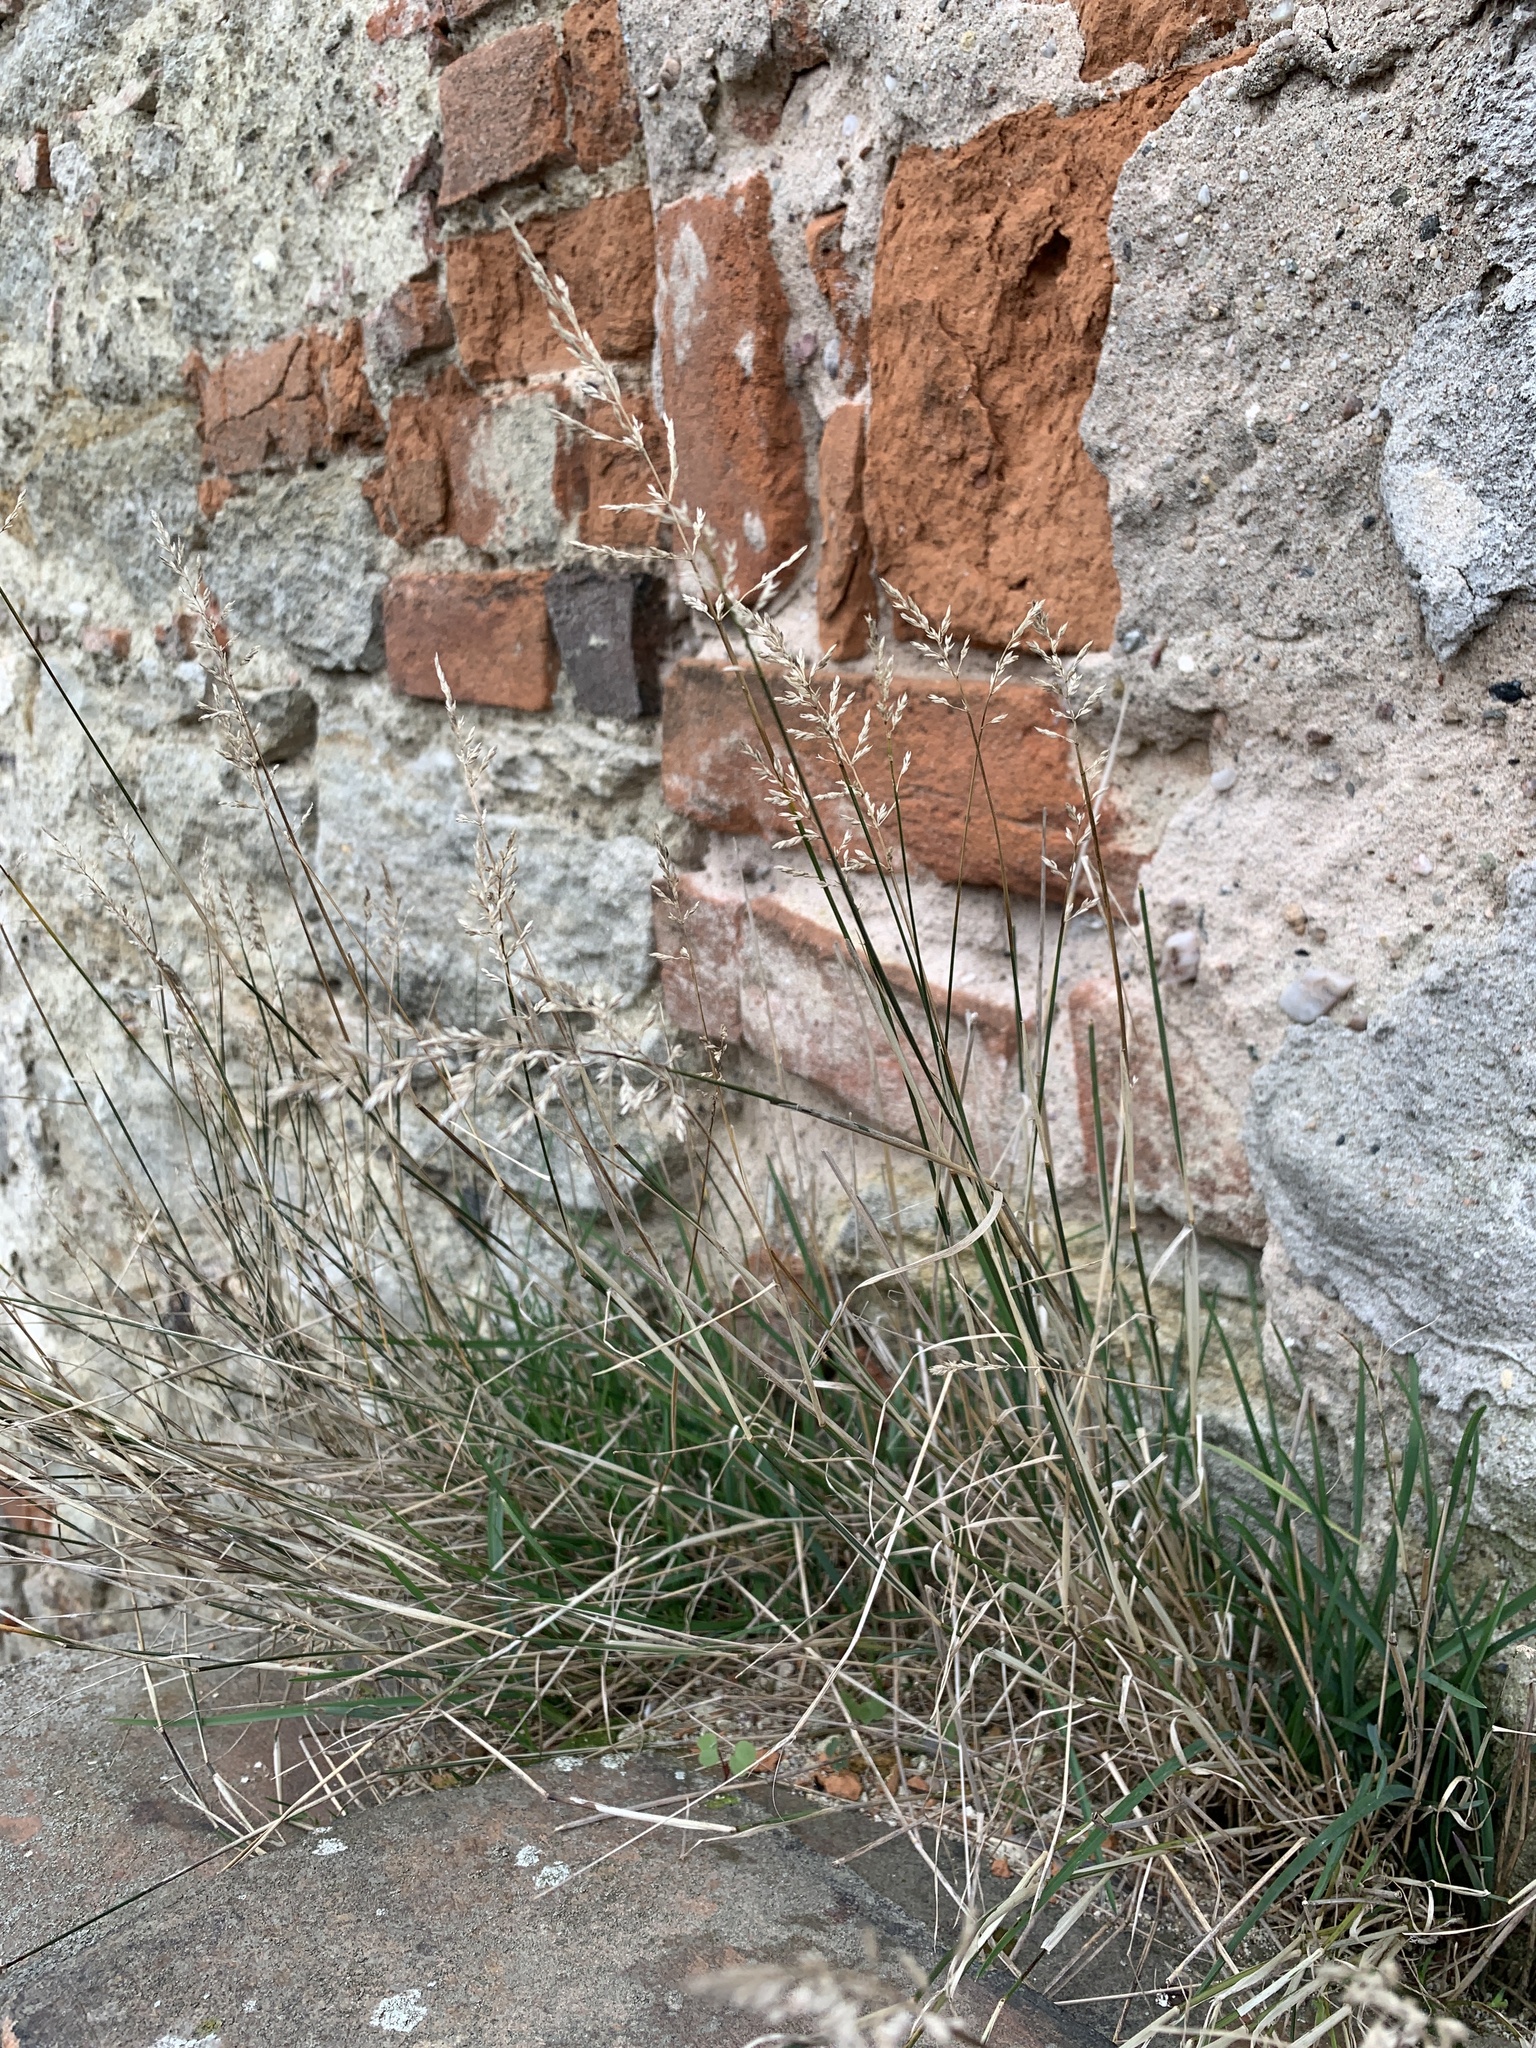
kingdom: Plantae
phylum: Tracheophyta
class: Liliopsida
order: Poales
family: Poaceae
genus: Poa
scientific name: Poa compressa
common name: Canada bluegrass
